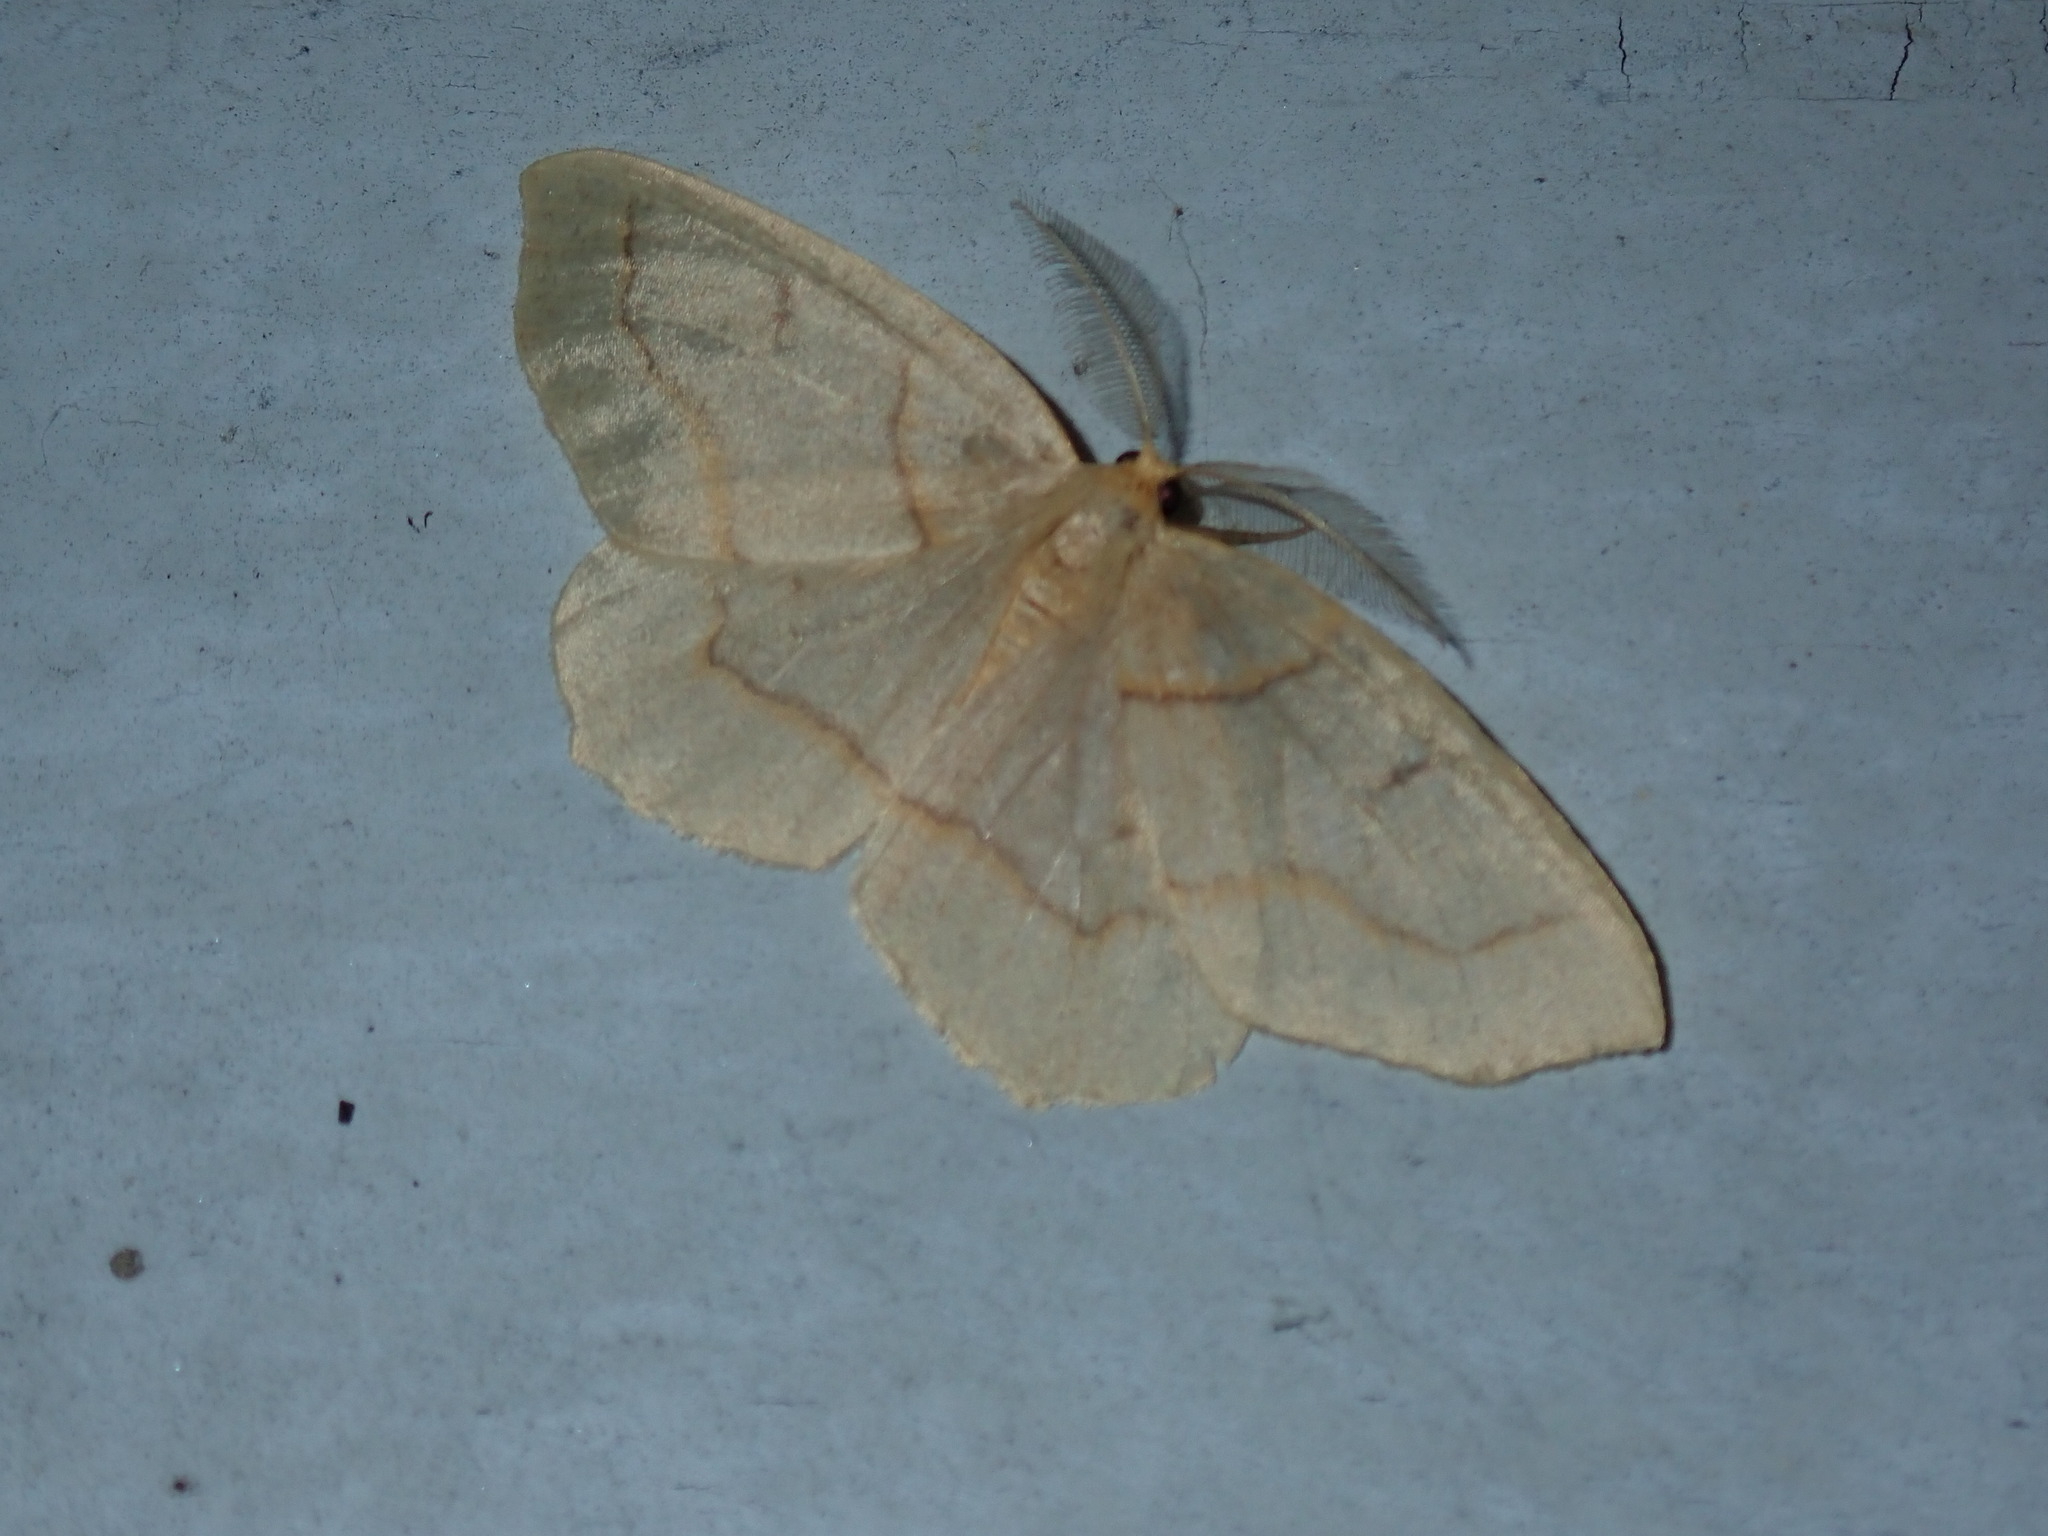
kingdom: Animalia
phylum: Arthropoda
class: Insecta
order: Lepidoptera
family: Geometridae
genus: Lambdina
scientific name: Lambdina fiscellaria
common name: Hemlock looper
